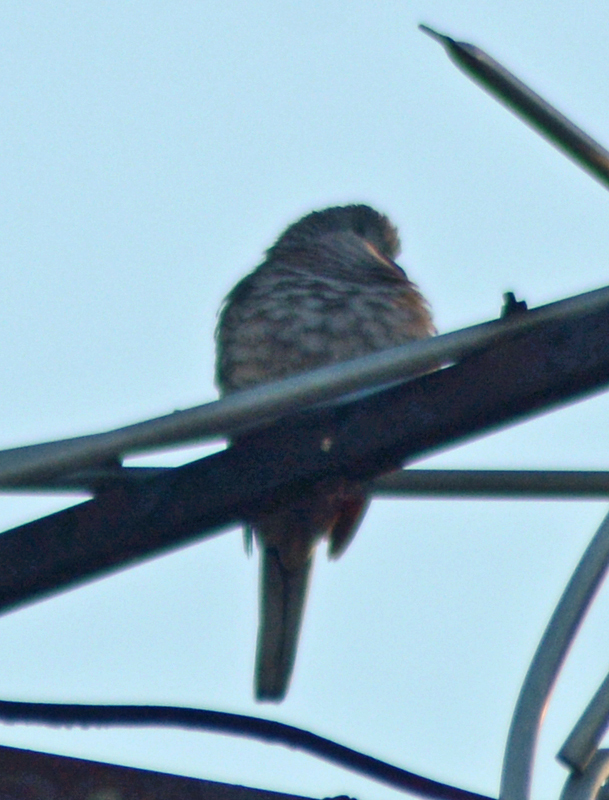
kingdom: Animalia
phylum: Chordata
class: Aves
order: Columbiformes
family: Columbidae
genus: Columbina
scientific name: Columbina inca
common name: Inca dove
